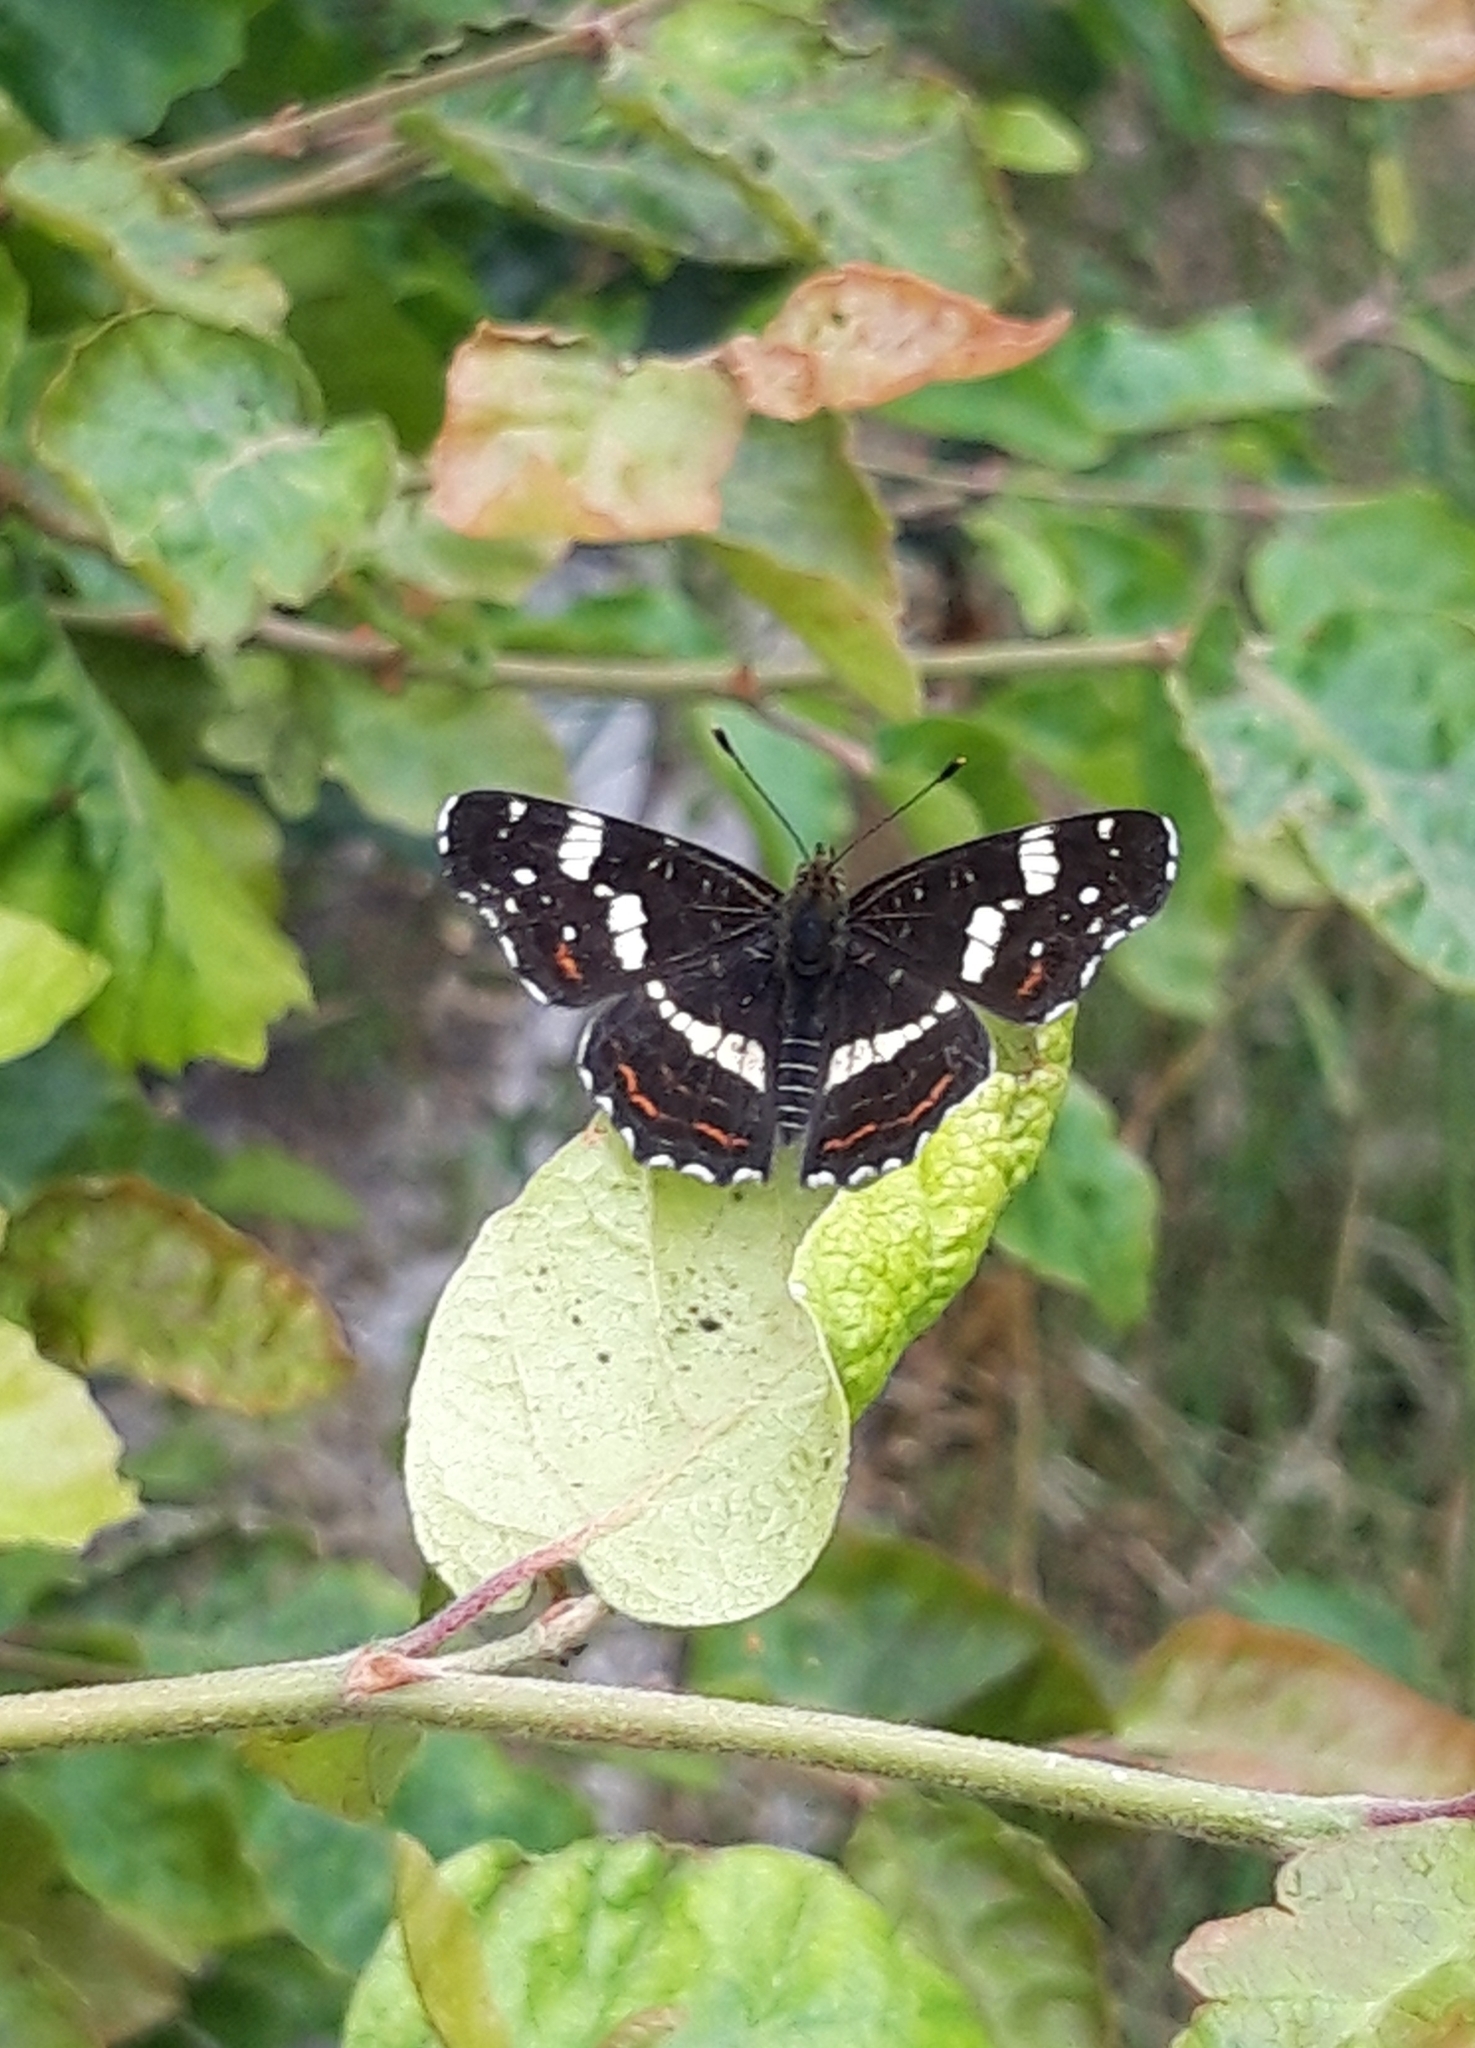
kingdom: Animalia
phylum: Arthropoda
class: Insecta
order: Lepidoptera
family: Nymphalidae
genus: Araschnia
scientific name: Araschnia levana
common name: Map butterfly
